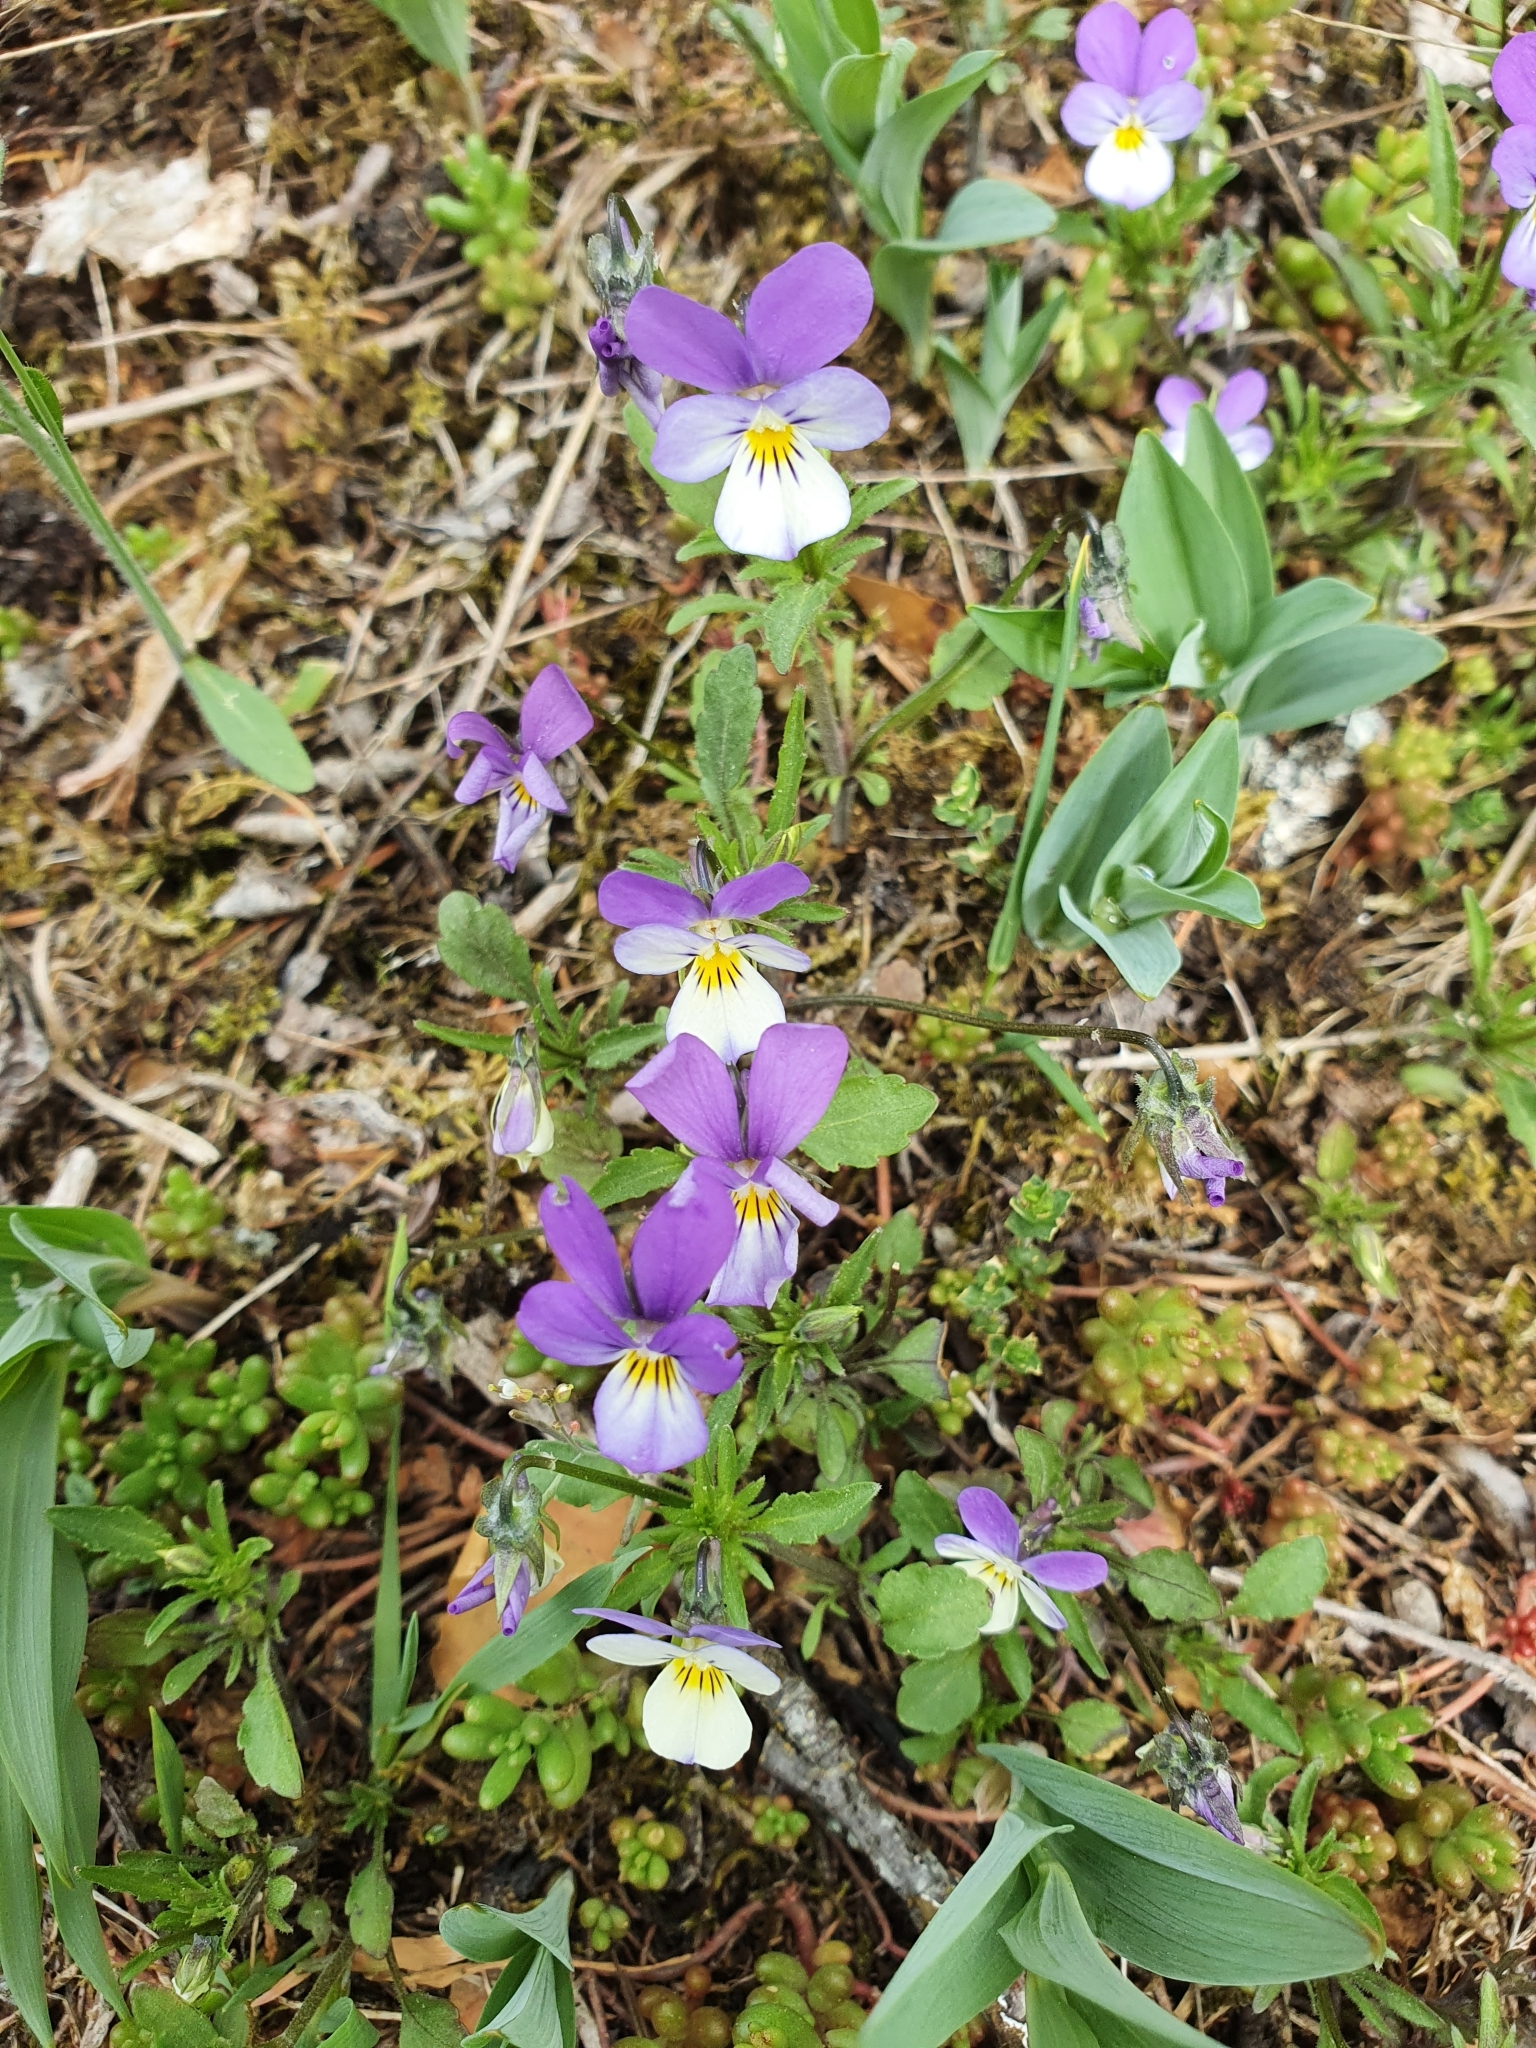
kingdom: Plantae
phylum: Tracheophyta
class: Magnoliopsida
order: Malpighiales
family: Violaceae
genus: Viola
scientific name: Viola tricolor
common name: Pansy
